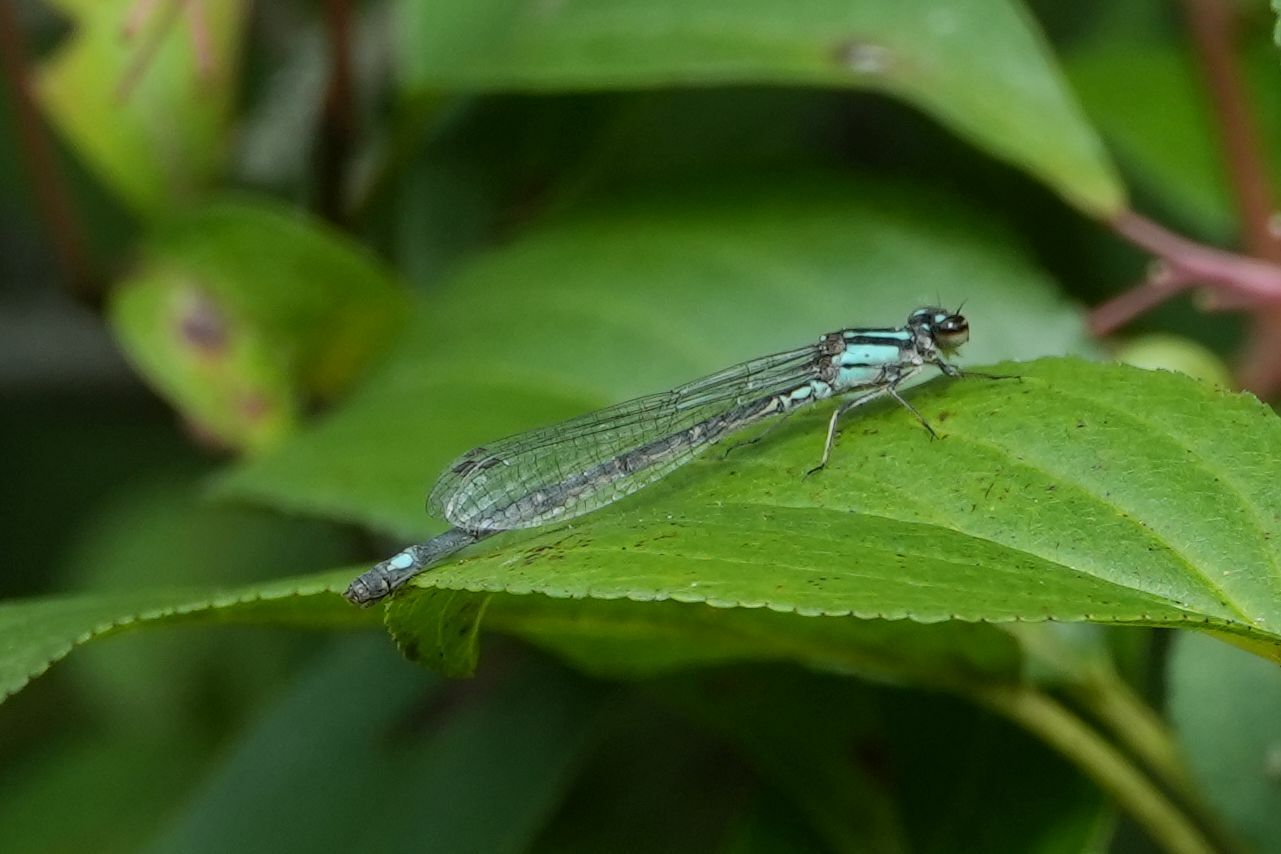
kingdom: Animalia
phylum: Arthropoda
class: Insecta
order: Odonata
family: Coenagrionidae
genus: Enallagma
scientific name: Enallagma geminatum
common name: Skimming bluet
